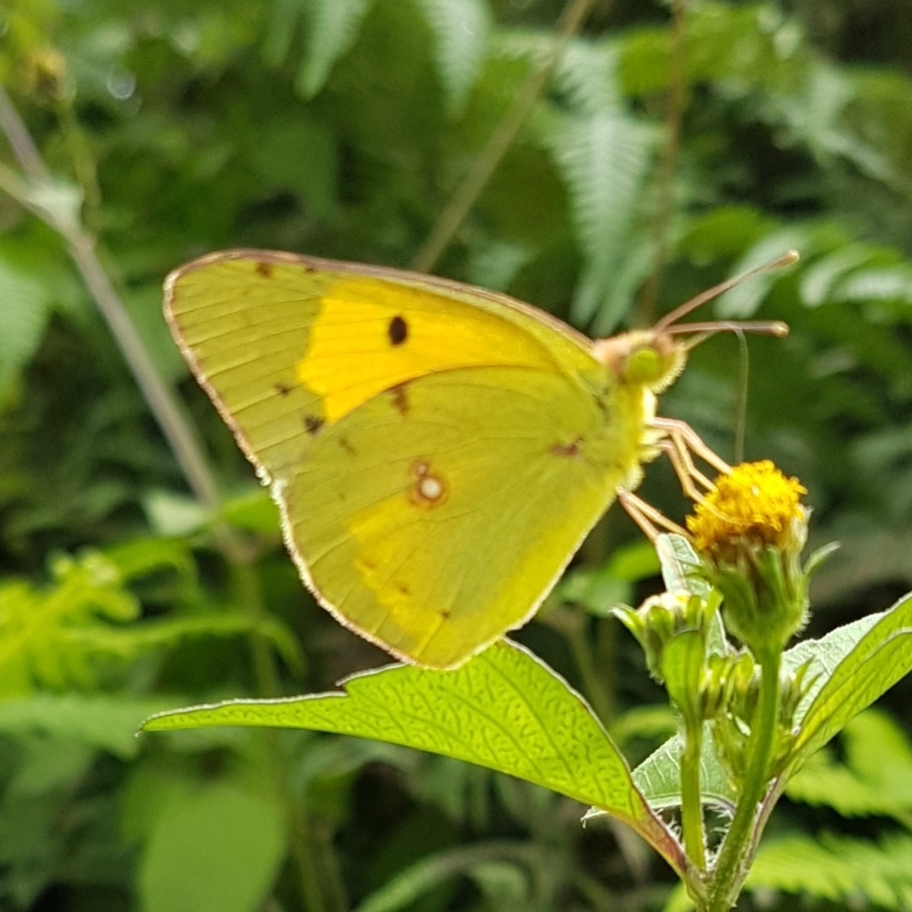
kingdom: Animalia
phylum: Arthropoda
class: Insecta
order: Lepidoptera
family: Pieridae
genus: Colias
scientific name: Colias croceus
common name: Clouded yellow
